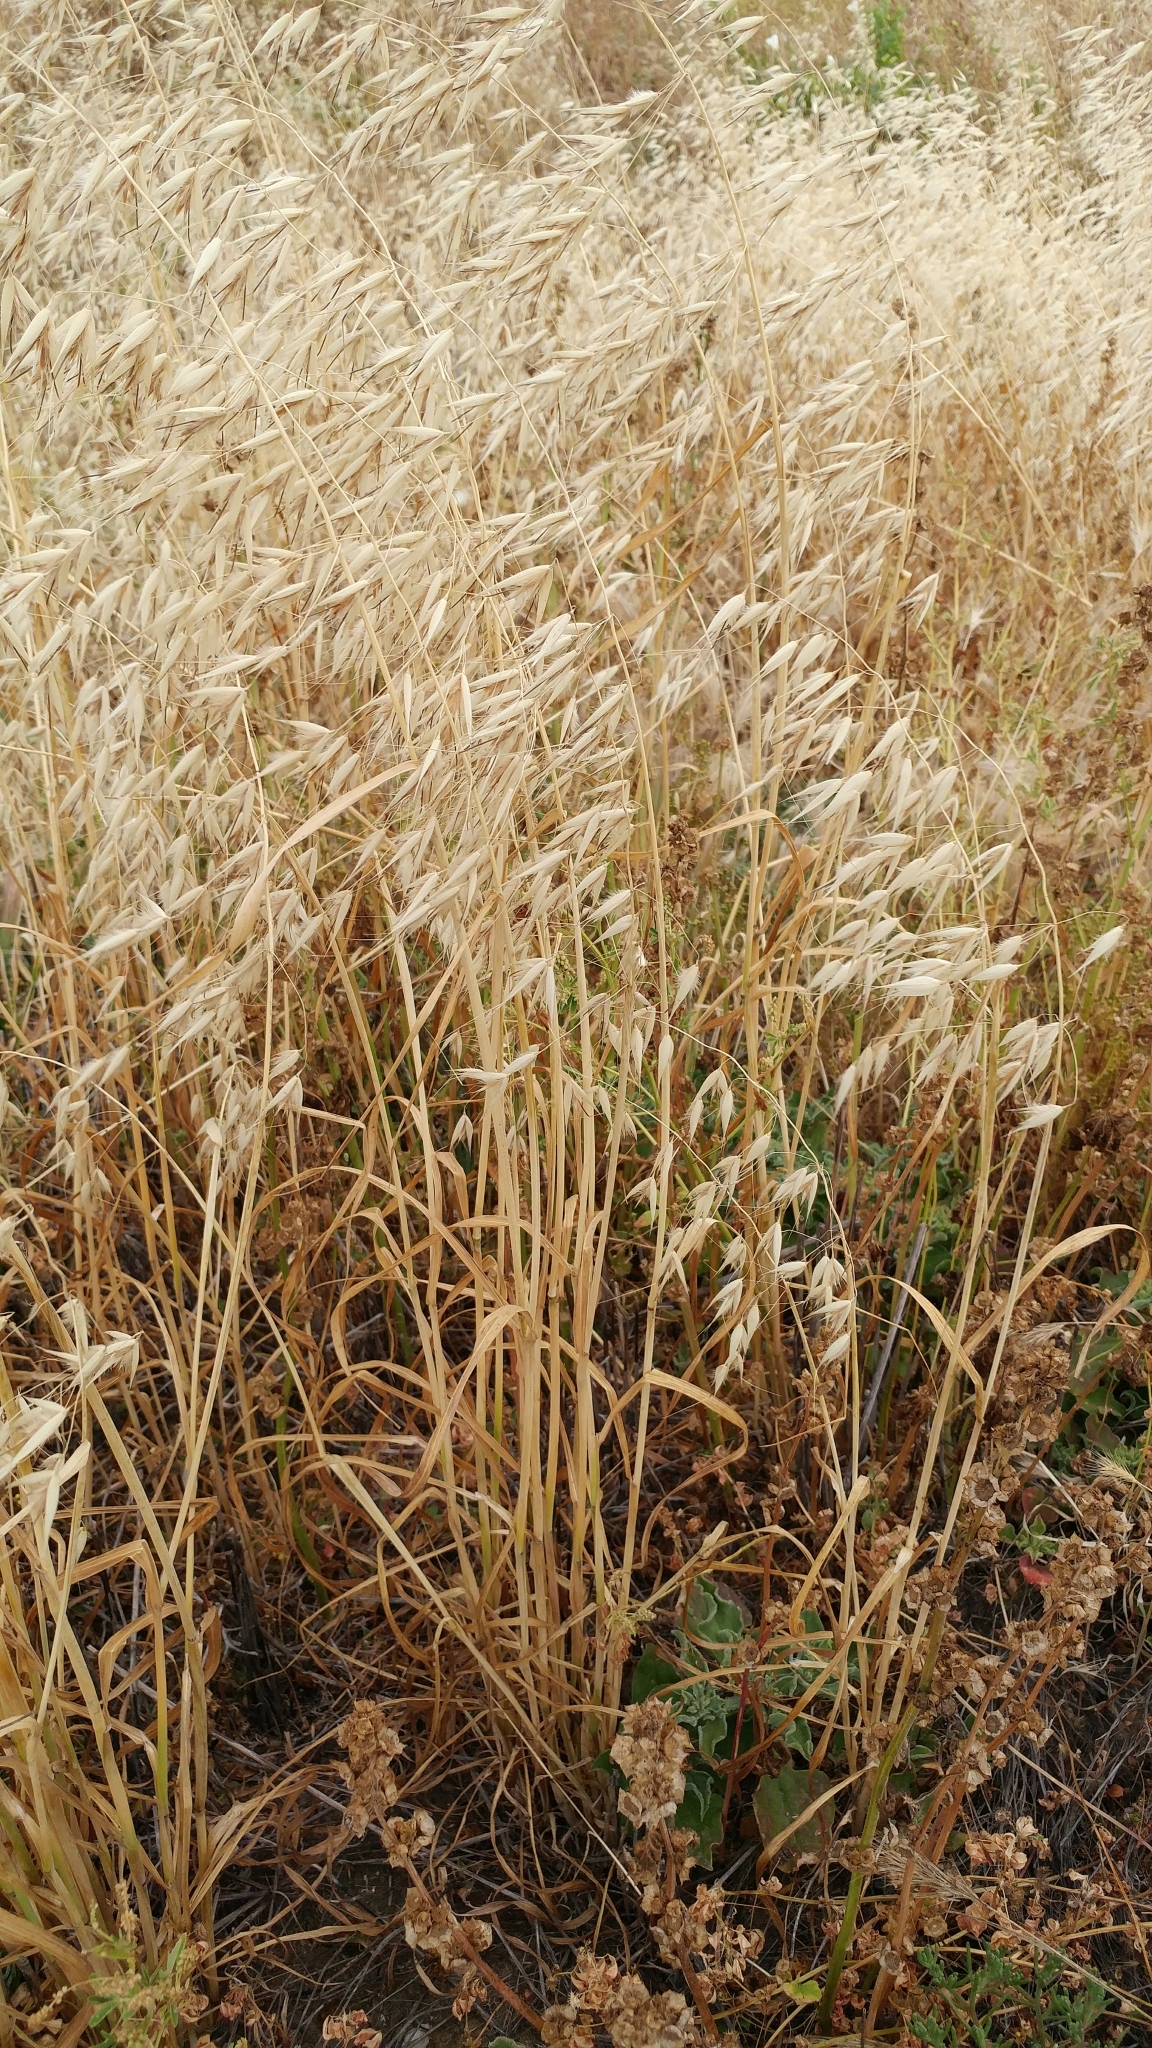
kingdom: Plantae
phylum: Tracheophyta
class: Liliopsida
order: Poales
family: Poaceae
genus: Avena
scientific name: Avena fatua
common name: Wild oat
